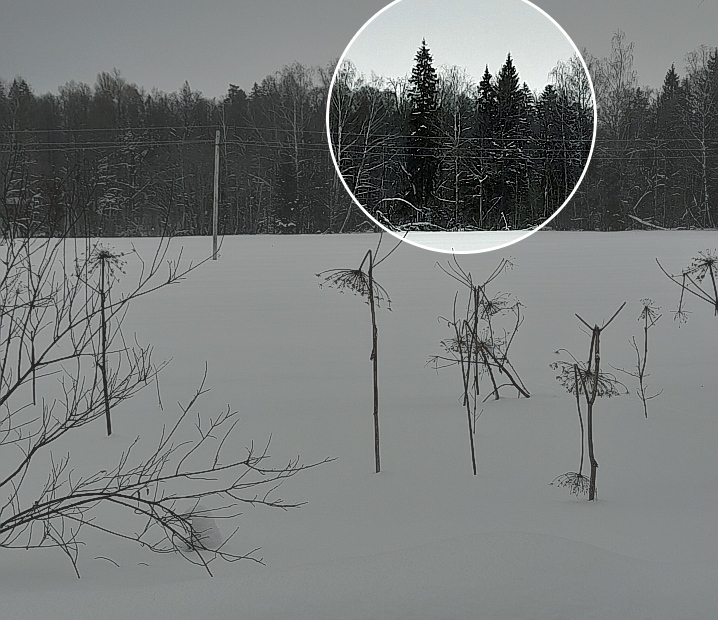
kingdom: Plantae
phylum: Tracheophyta
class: Pinopsida
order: Pinales
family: Pinaceae
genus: Picea
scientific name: Picea abies
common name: Norway spruce
